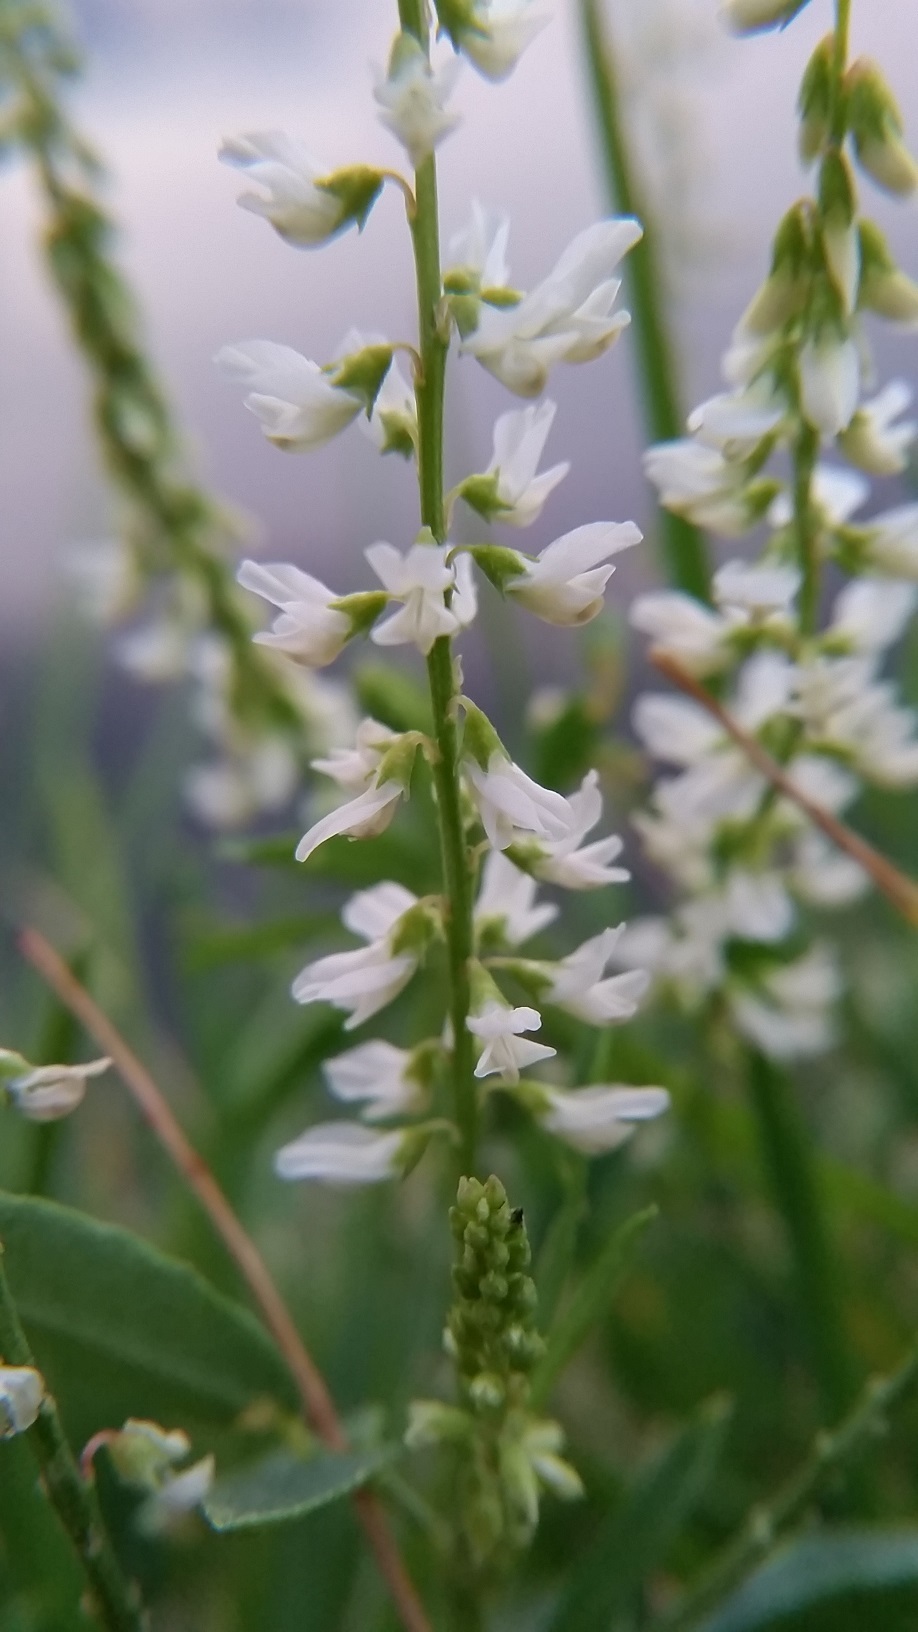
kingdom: Plantae
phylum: Tracheophyta
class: Magnoliopsida
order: Fabales
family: Fabaceae
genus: Melilotus
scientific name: Melilotus albus
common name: White melilot
